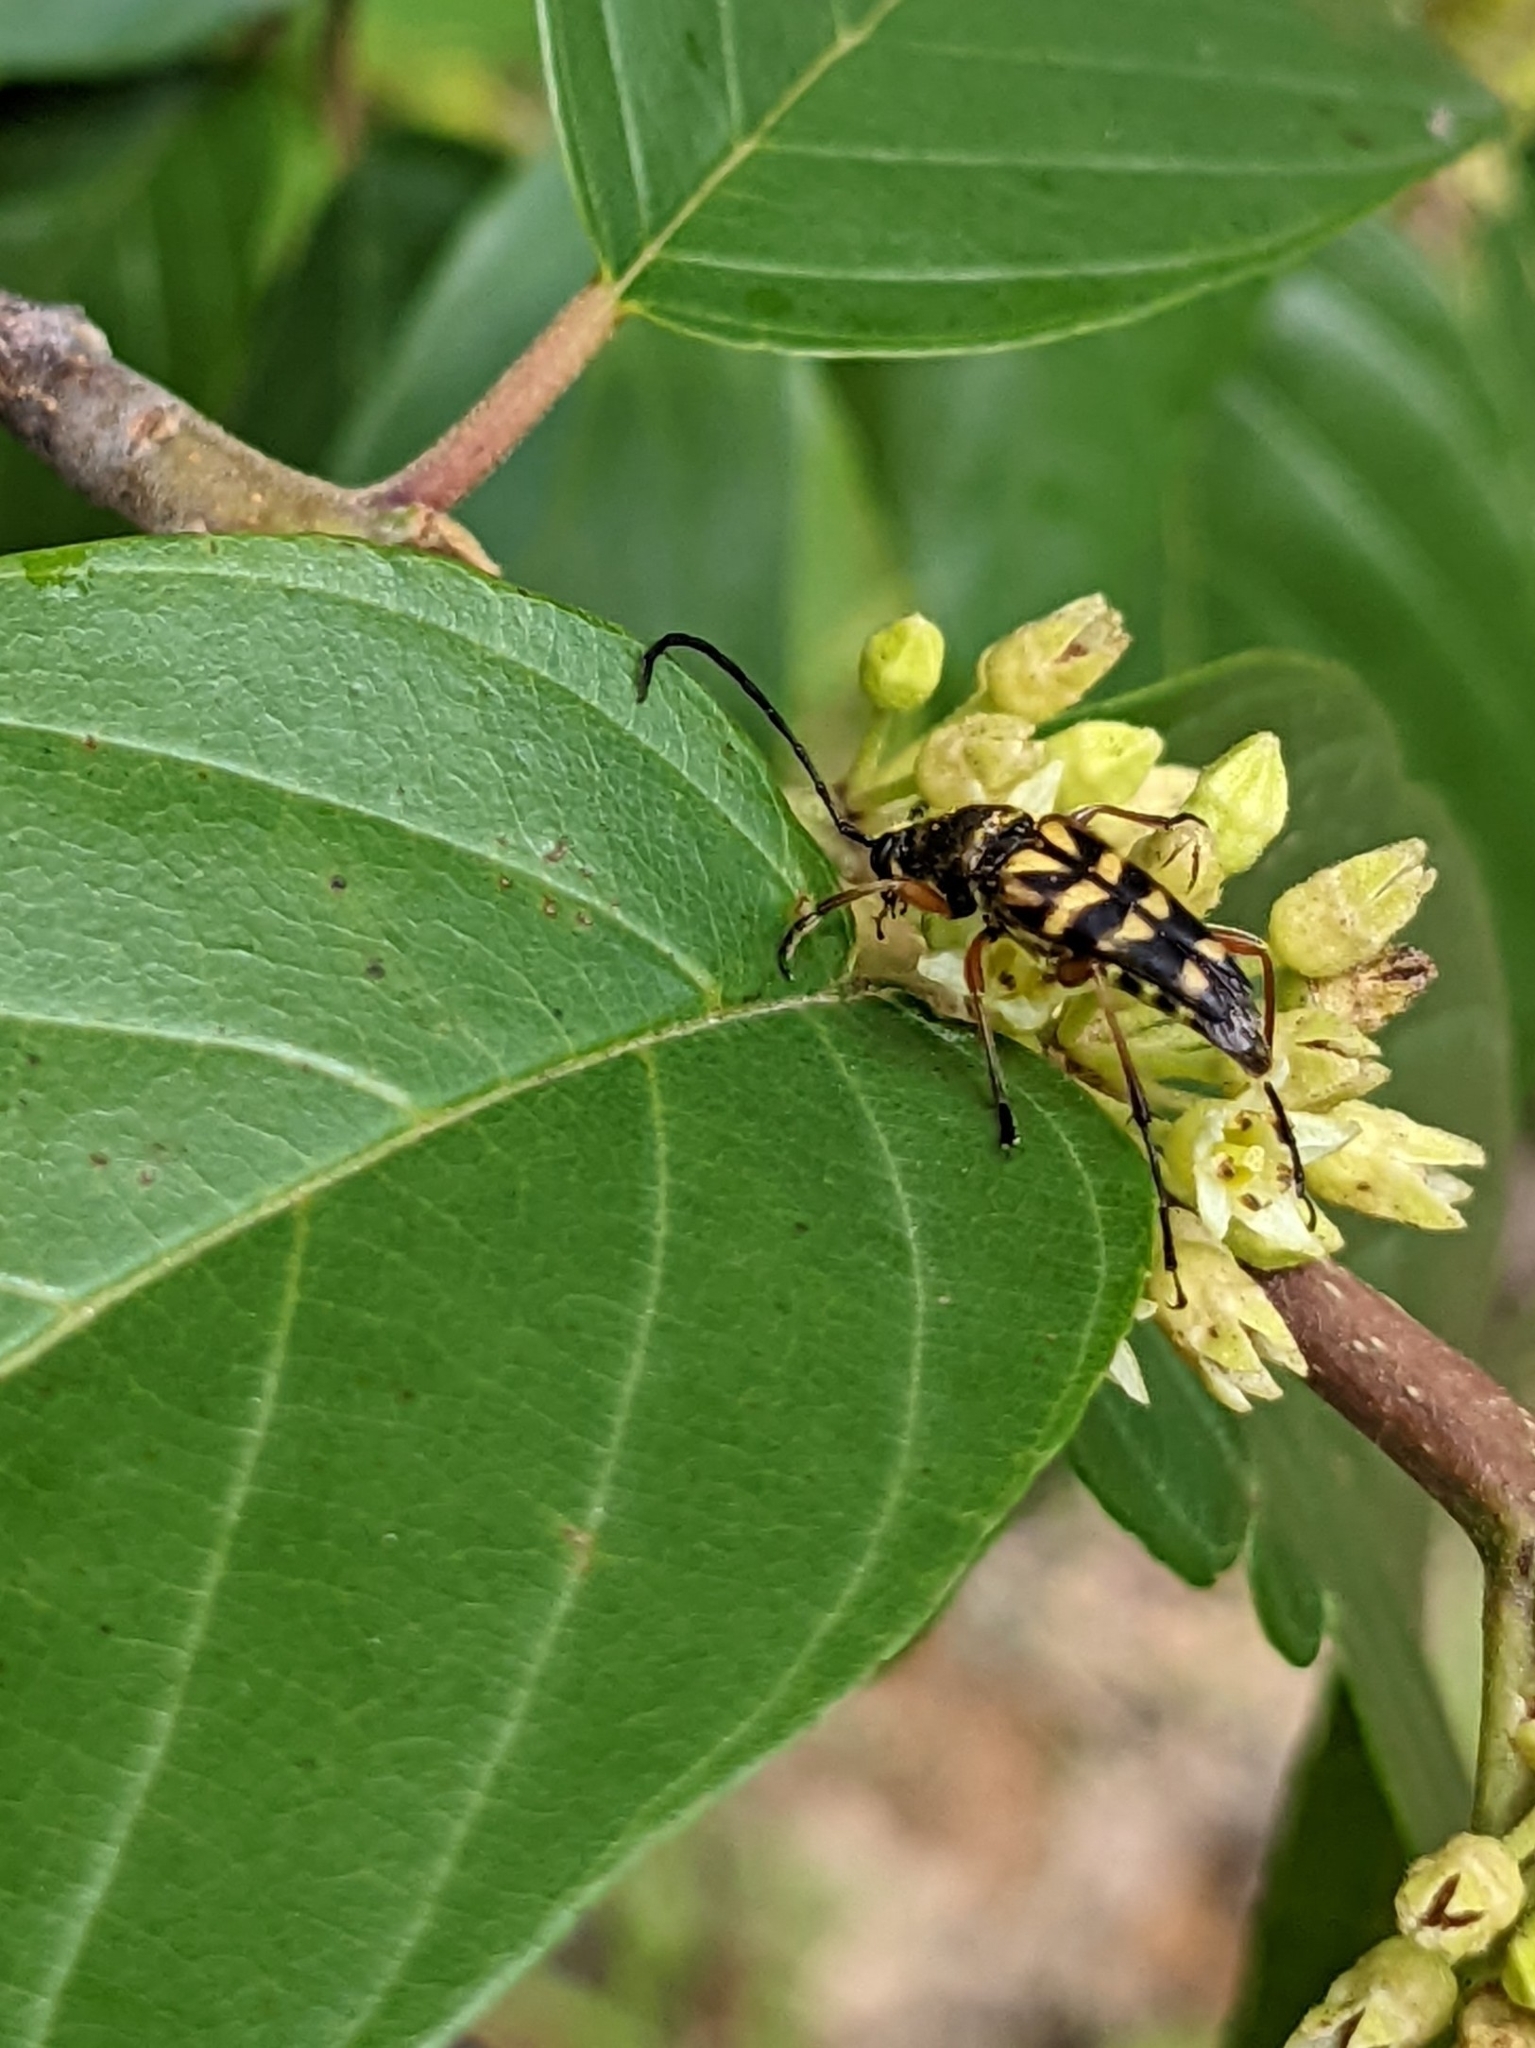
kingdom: Animalia
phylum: Arthropoda
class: Insecta
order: Coleoptera
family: Cerambycidae
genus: Typocerus
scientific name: Typocerus zebra
